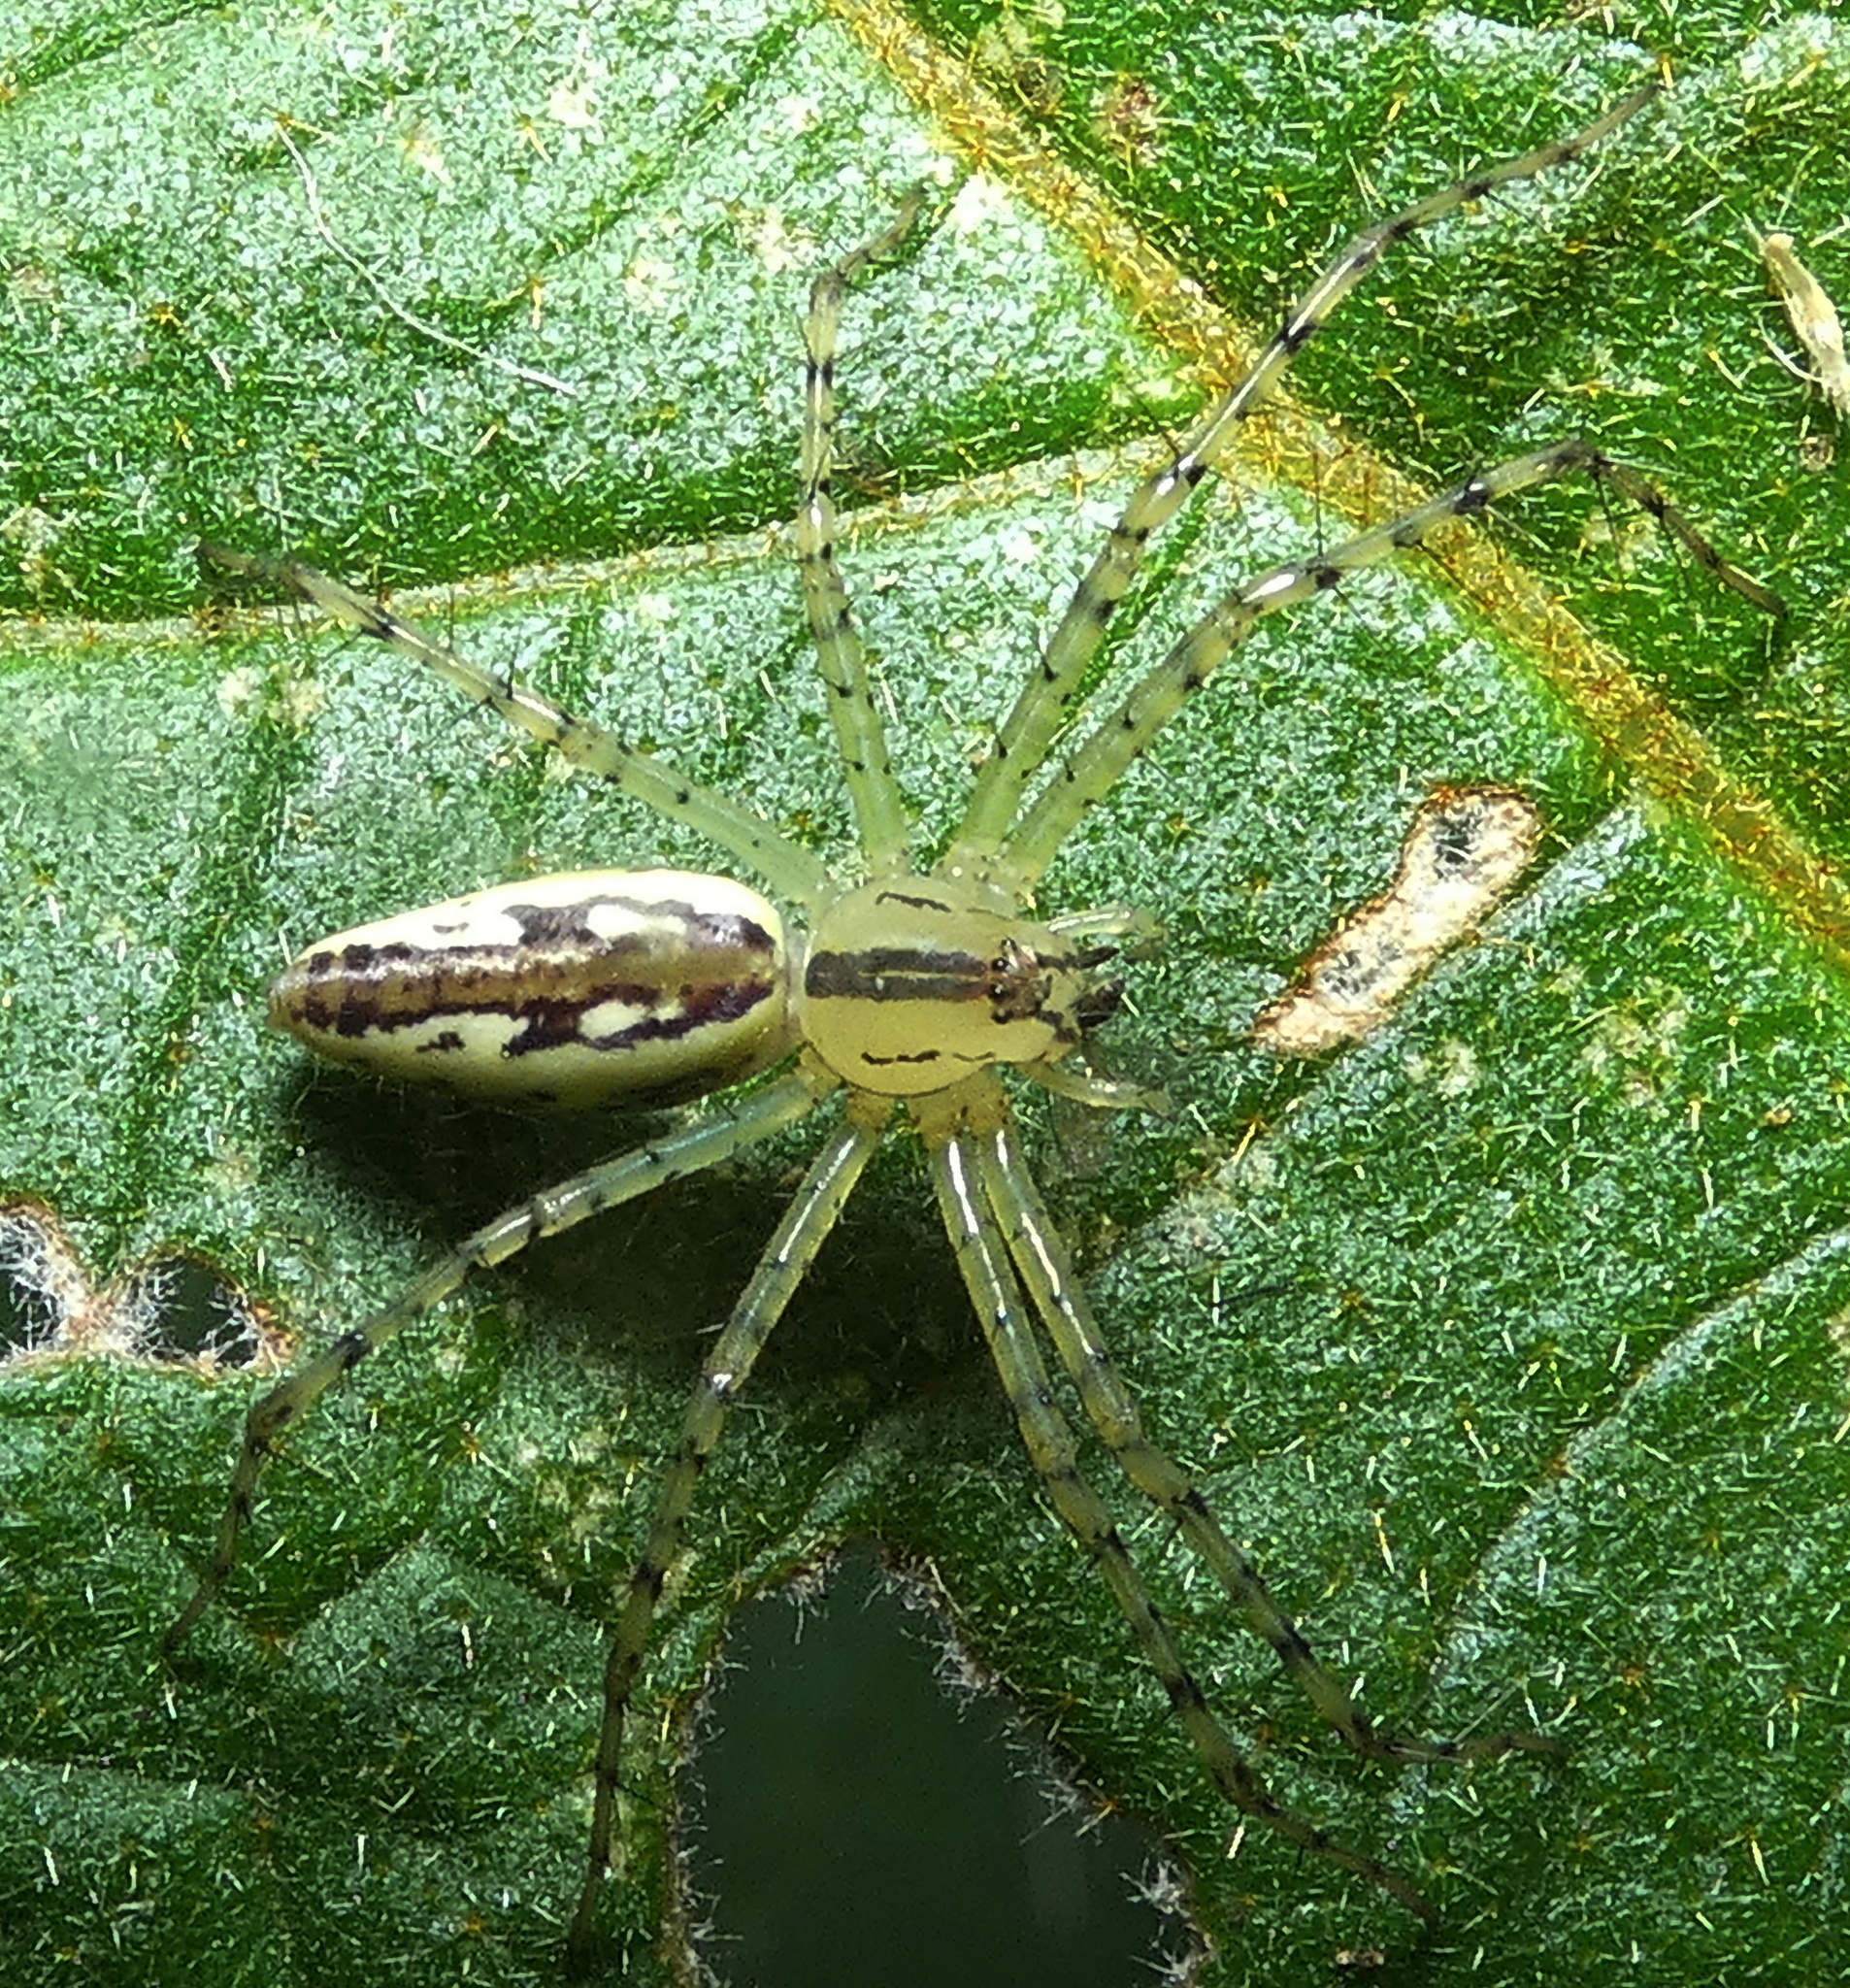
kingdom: Animalia
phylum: Arthropoda
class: Arachnida
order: Araneae
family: Oxyopidae
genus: Peucetia
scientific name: Peucetia rubrolineata
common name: Lynx spiders
